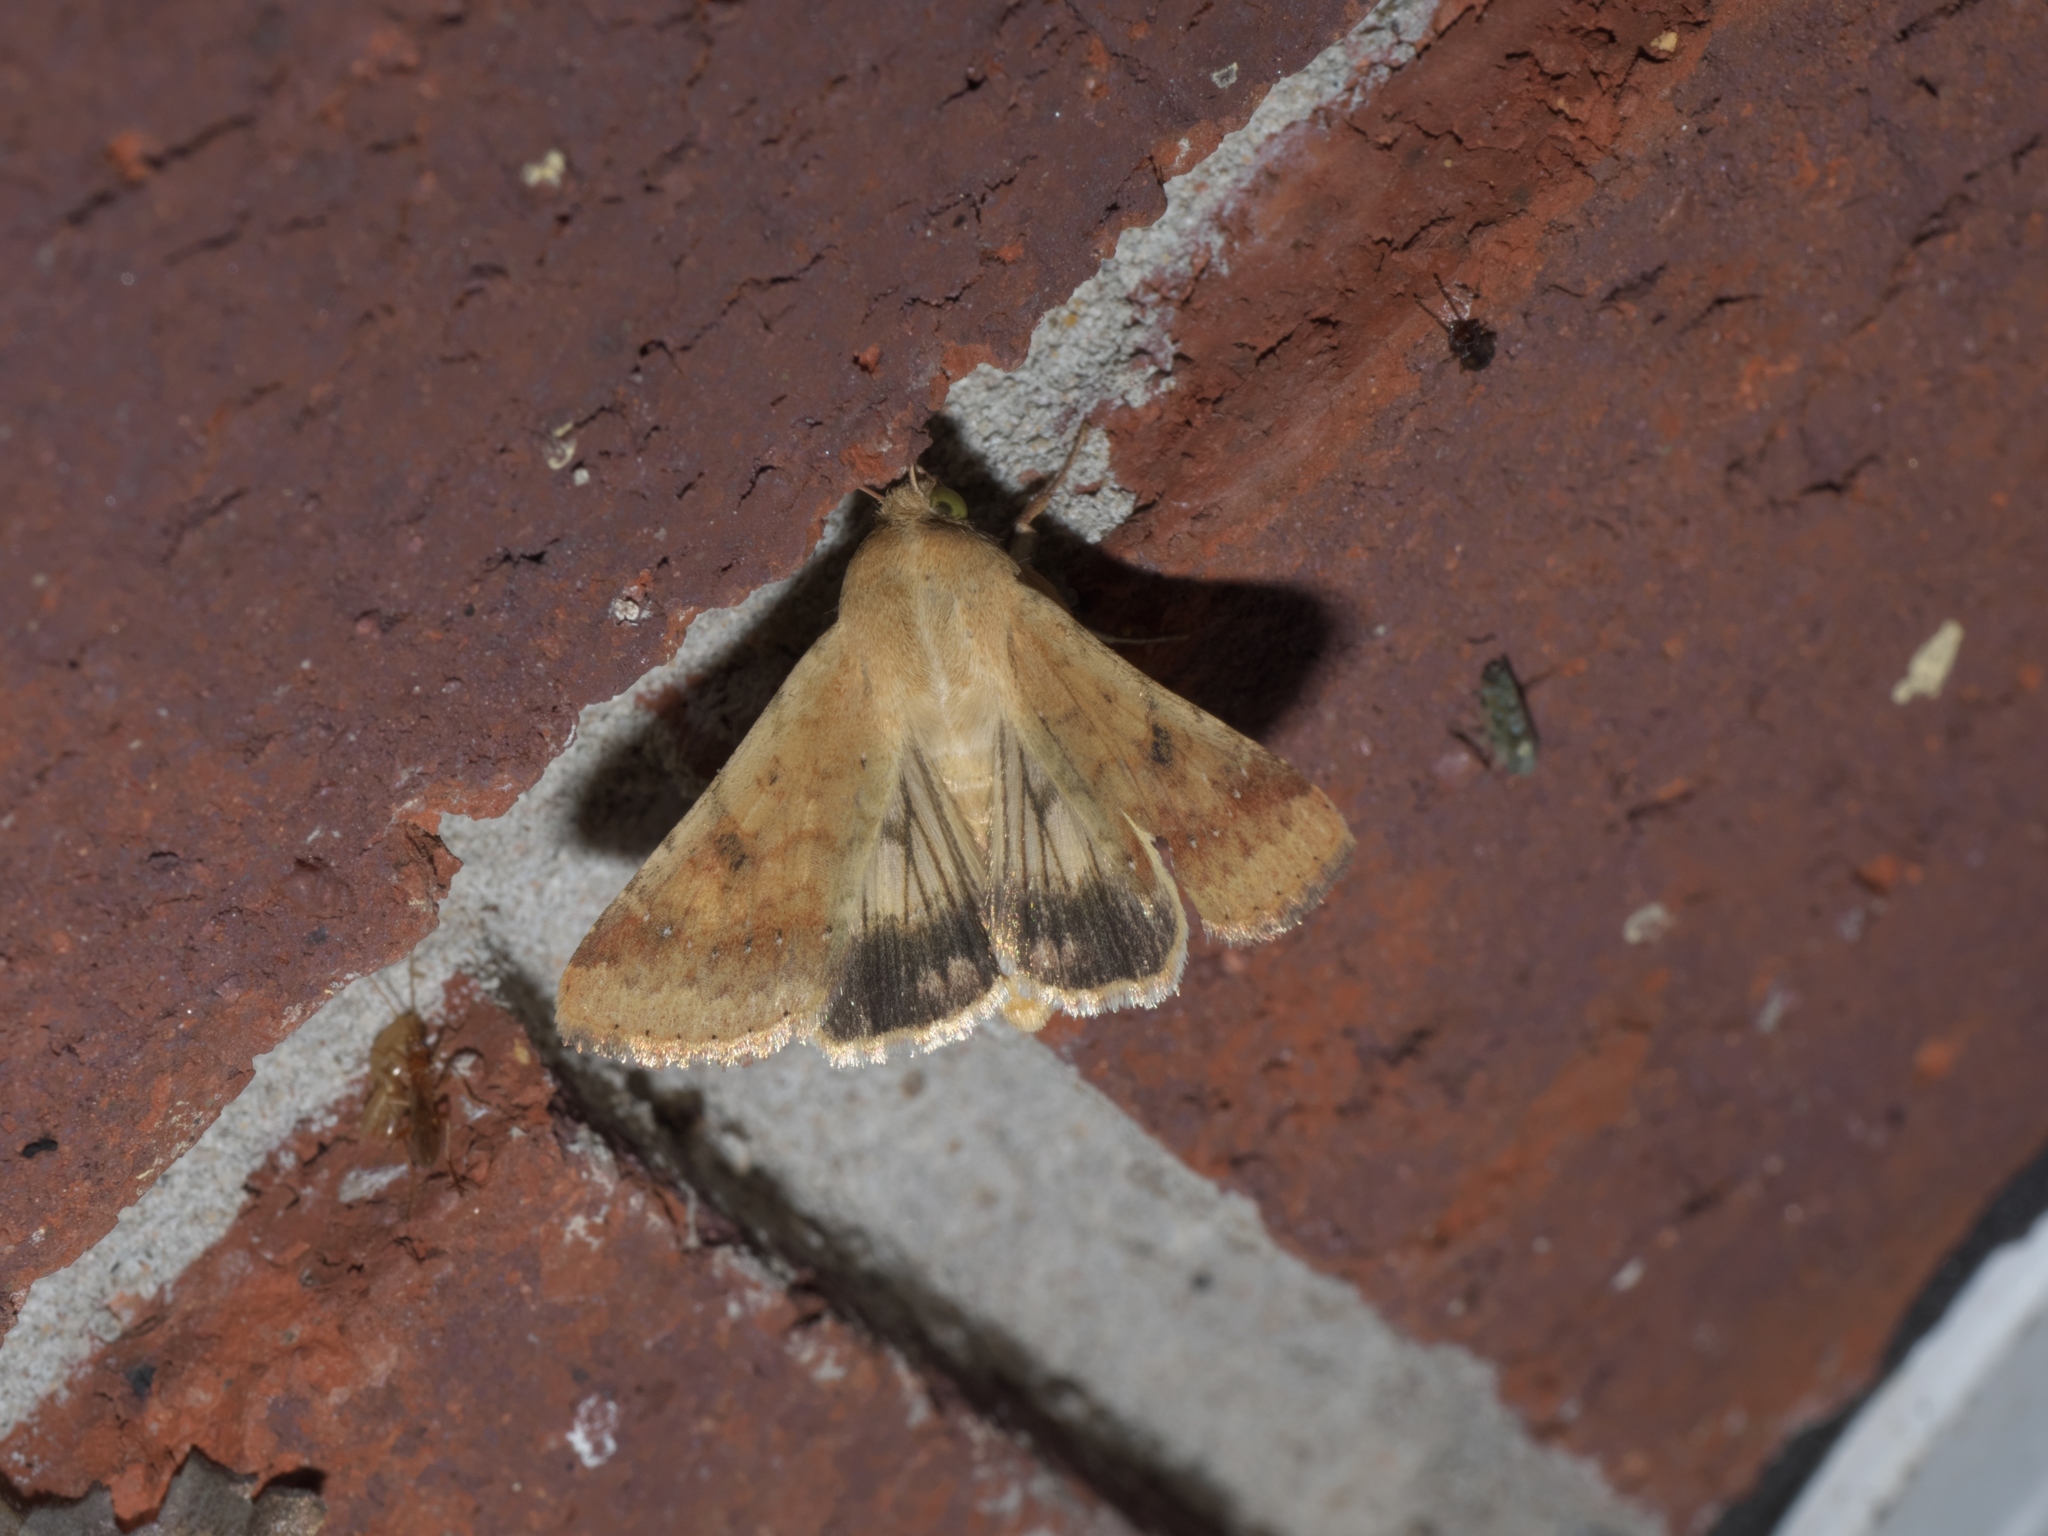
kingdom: Animalia
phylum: Arthropoda
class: Insecta
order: Lepidoptera
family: Noctuidae
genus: Helicoverpa
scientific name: Helicoverpa zea
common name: Bollworm
